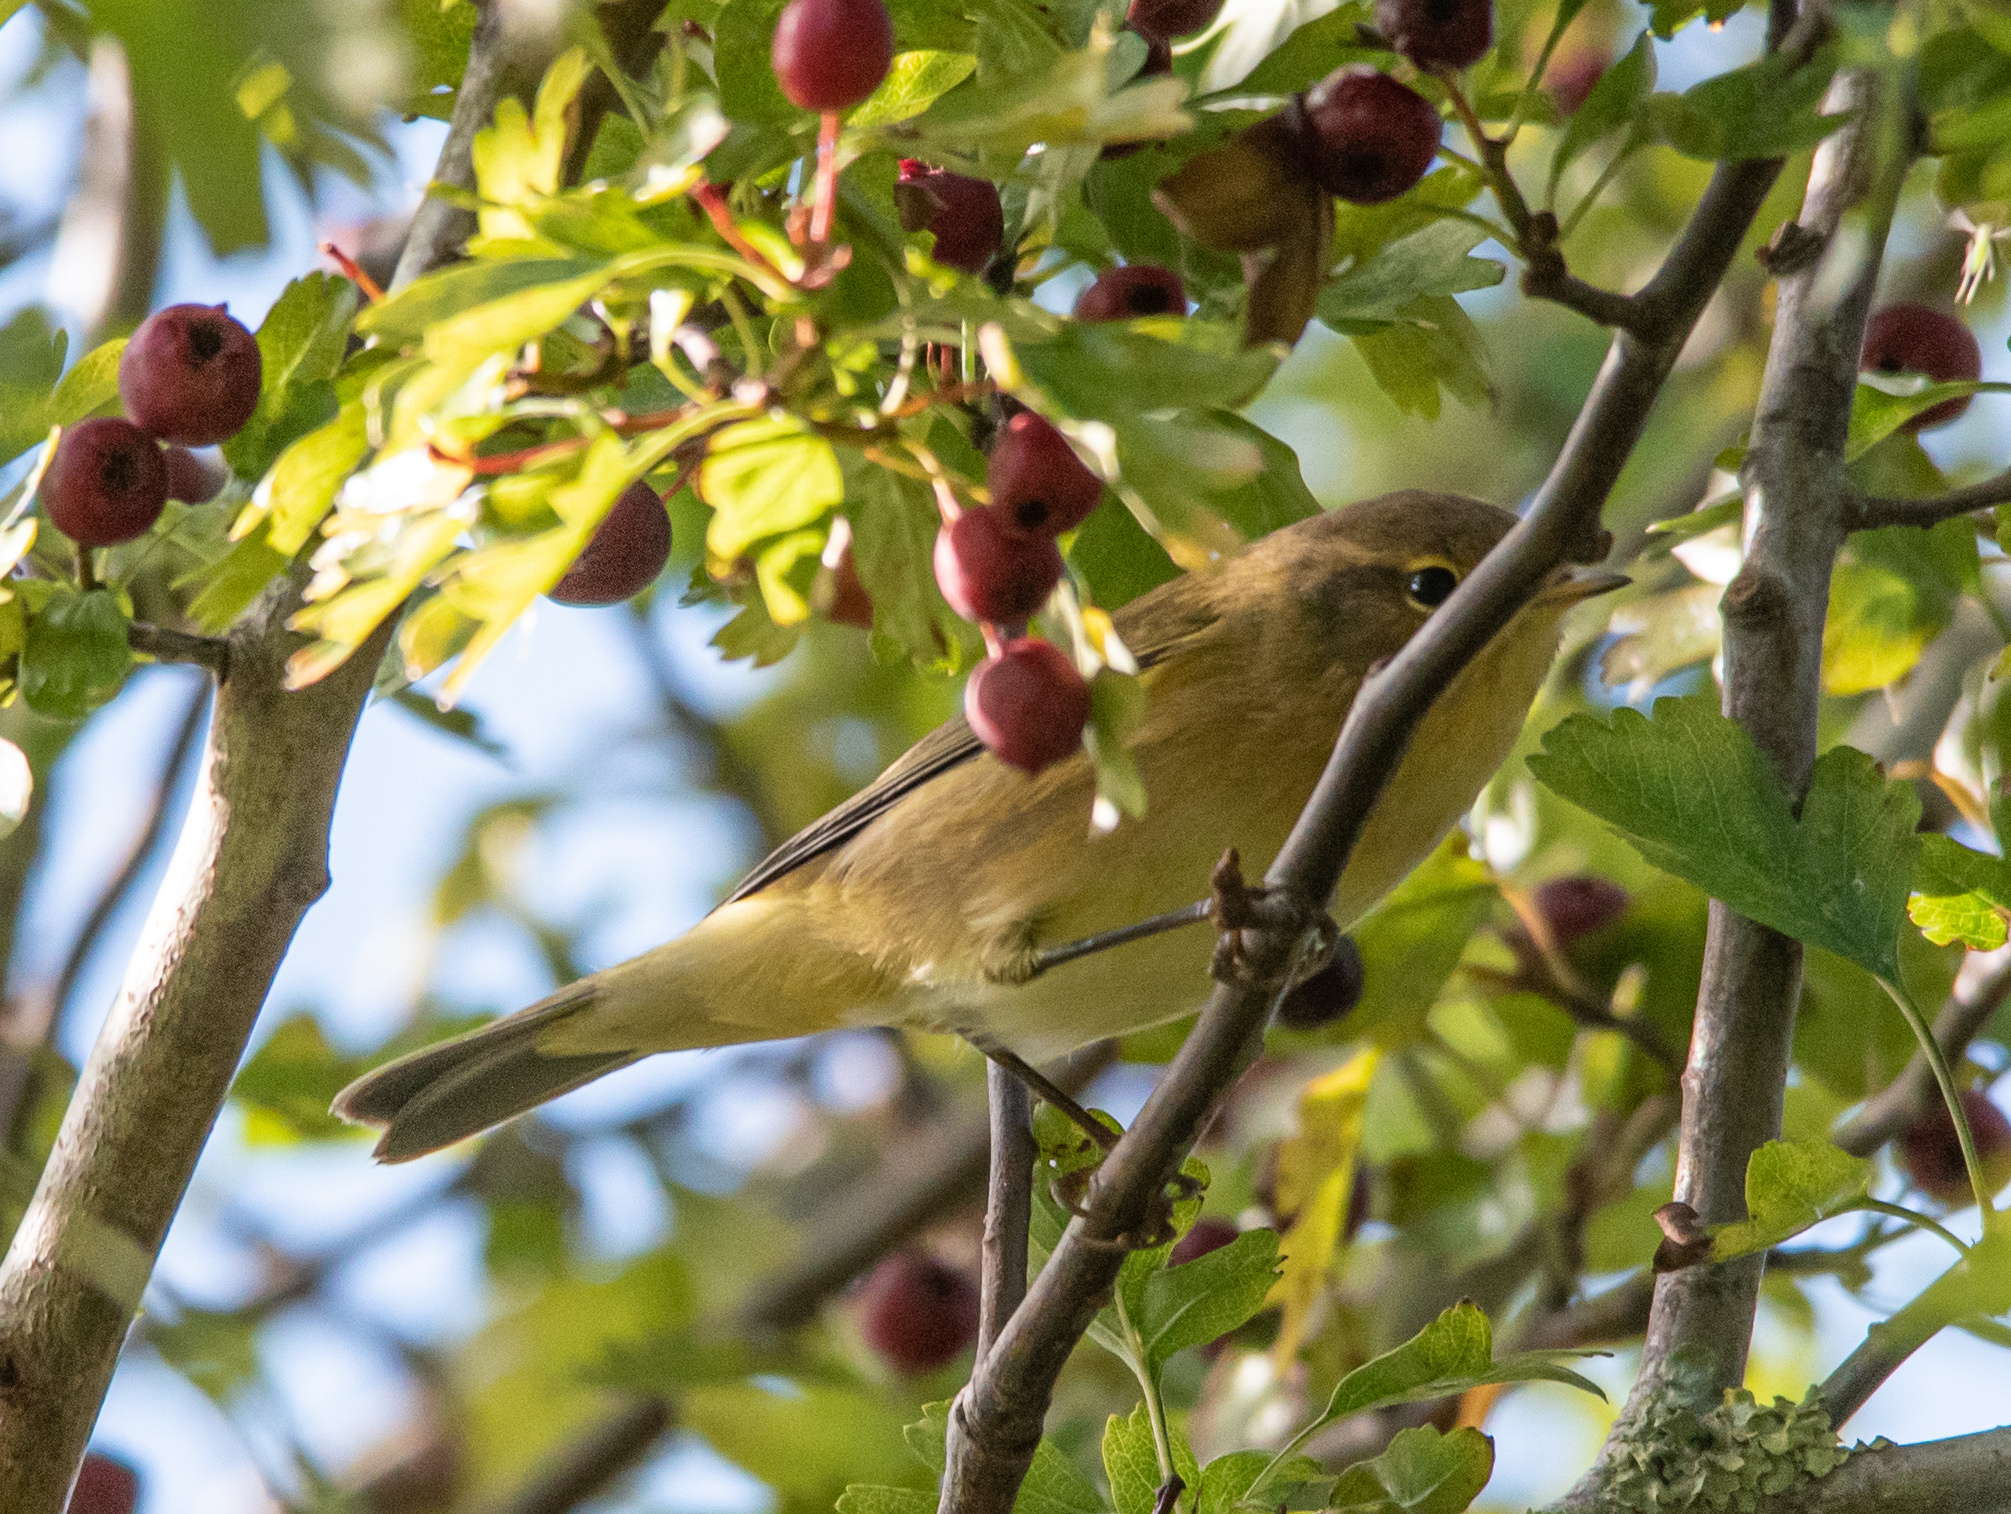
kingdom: Animalia
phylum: Chordata
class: Aves
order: Passeriformes
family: Phylloscopidae
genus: Phylloscopus
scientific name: Phylloscopus collybita
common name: Common chiffchaff
